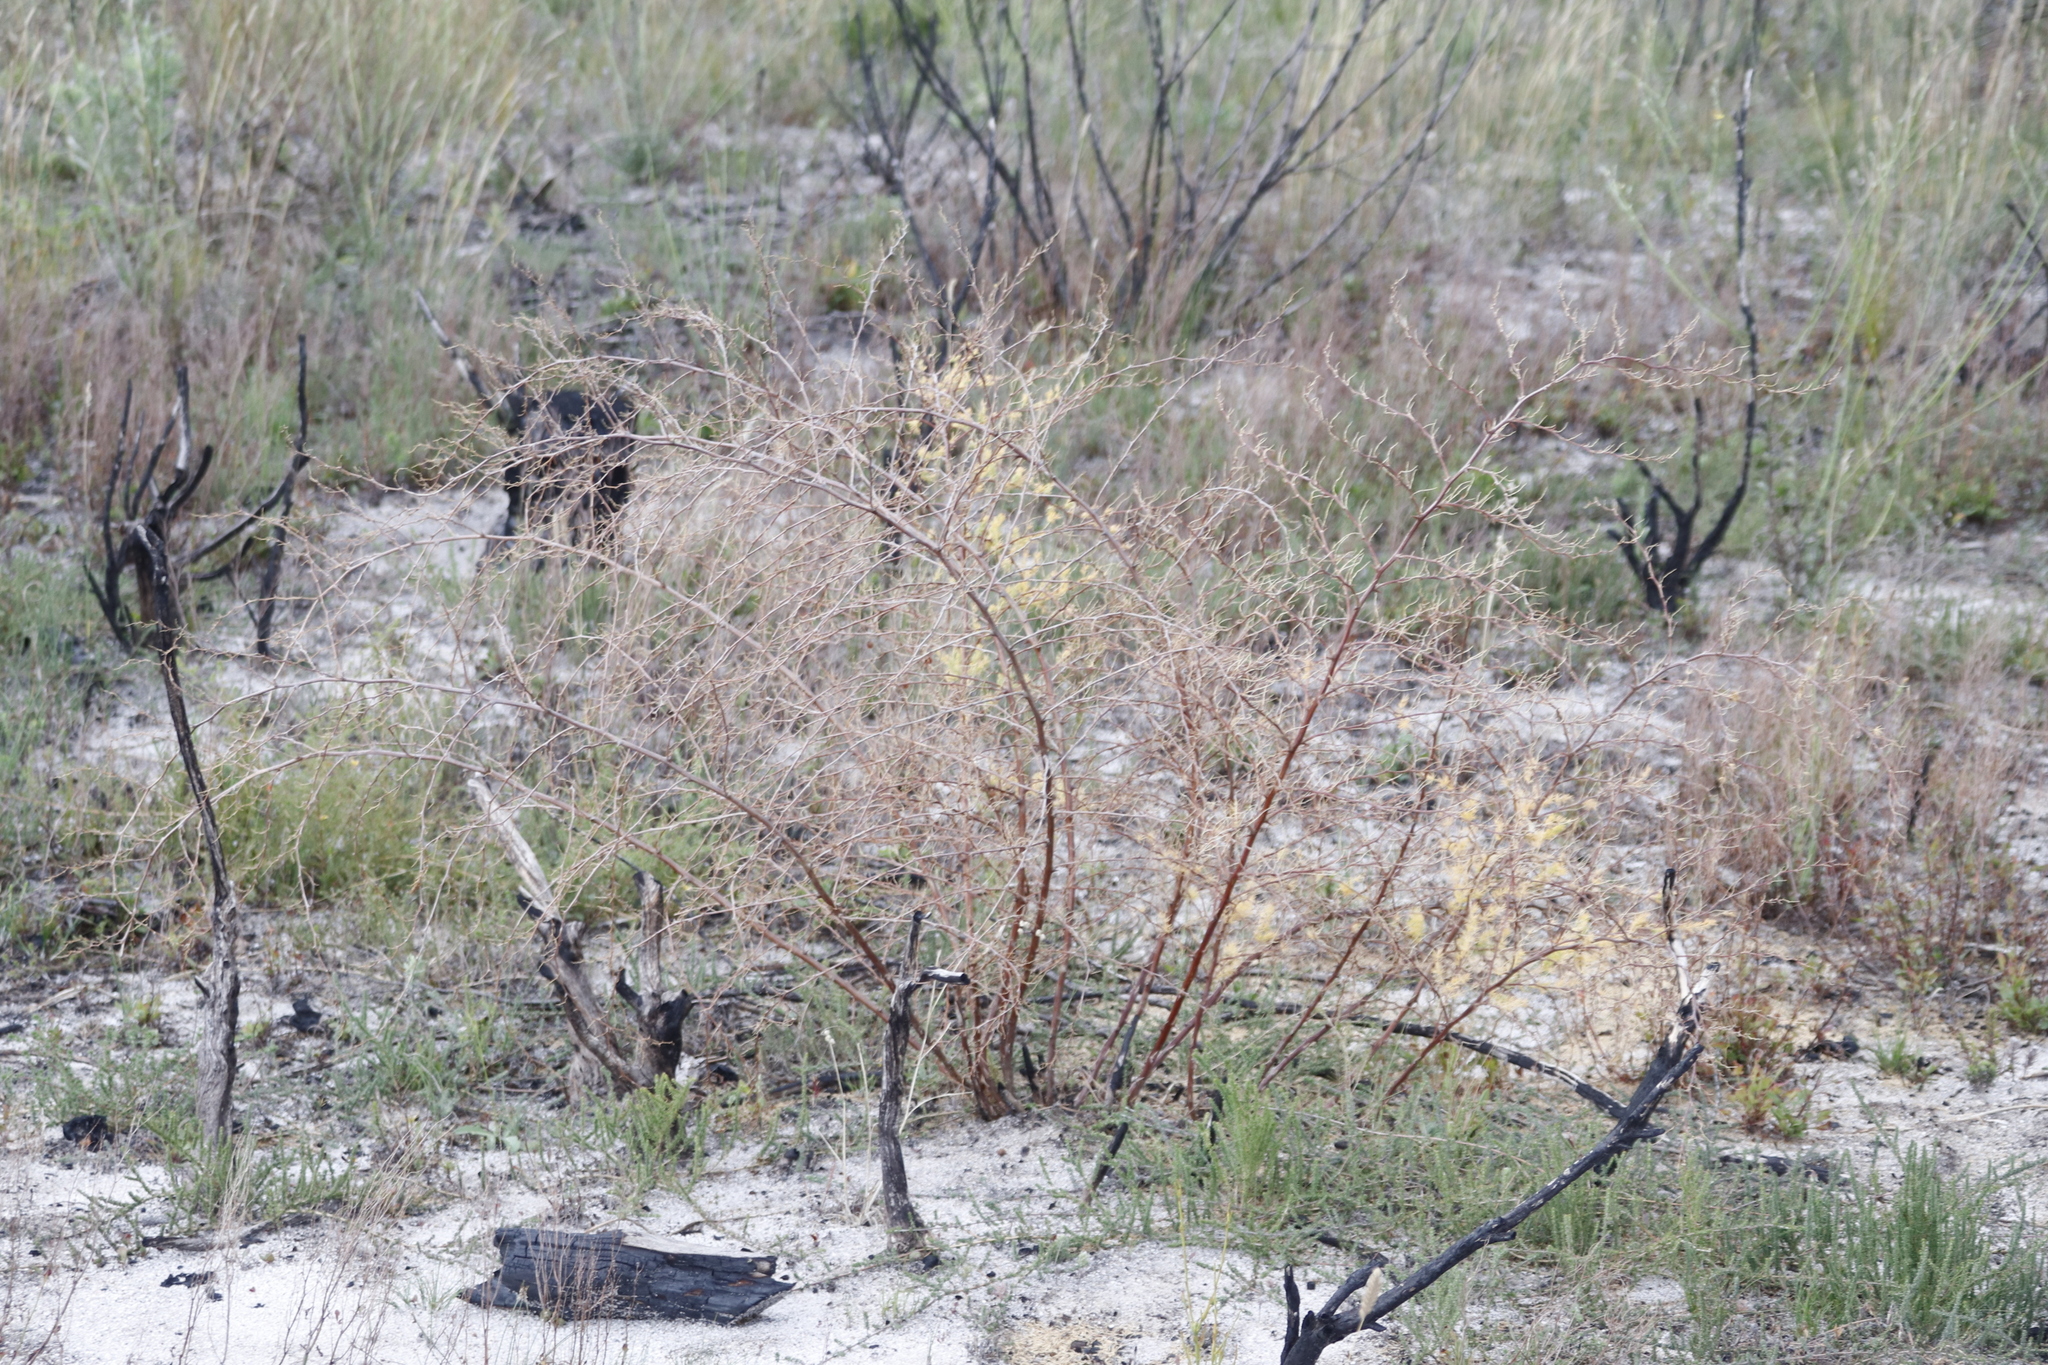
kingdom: Plantae
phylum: Tracheophyta
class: Liliopsida
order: Asparagales
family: Asparagaceae
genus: Asparagus
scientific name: Asparagus rubicundus
